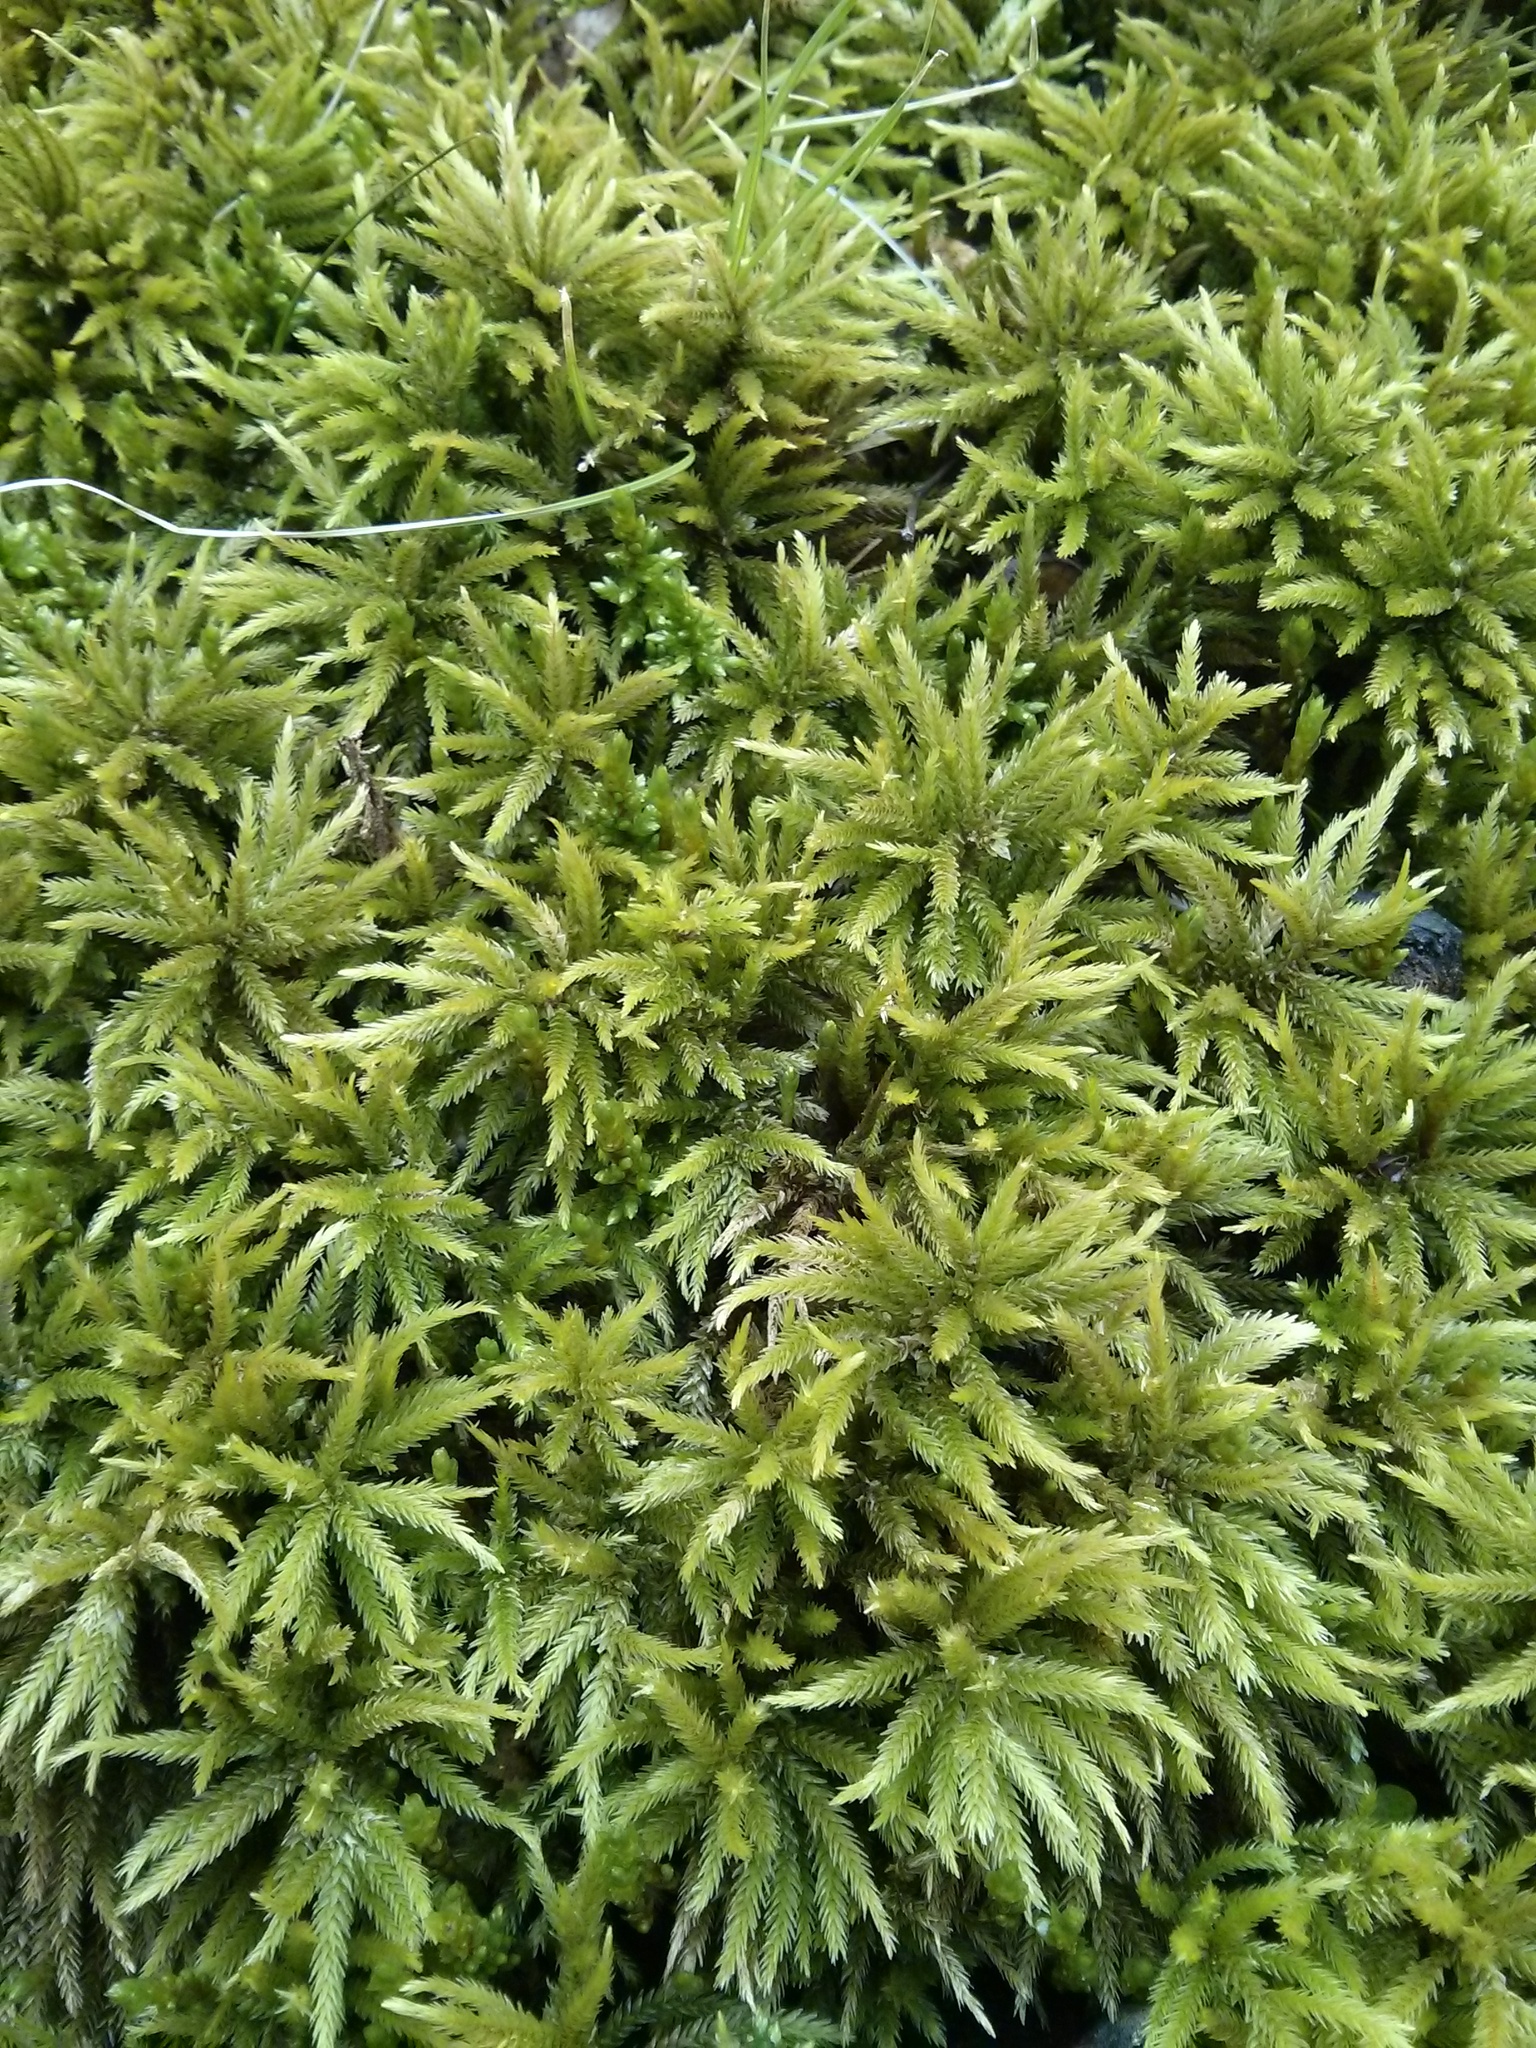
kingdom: Plantae
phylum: Bryophyta
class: Bryopsida
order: Hypnales
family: Climaciaceae
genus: Climacium
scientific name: Climacium americanum
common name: American tree moss
